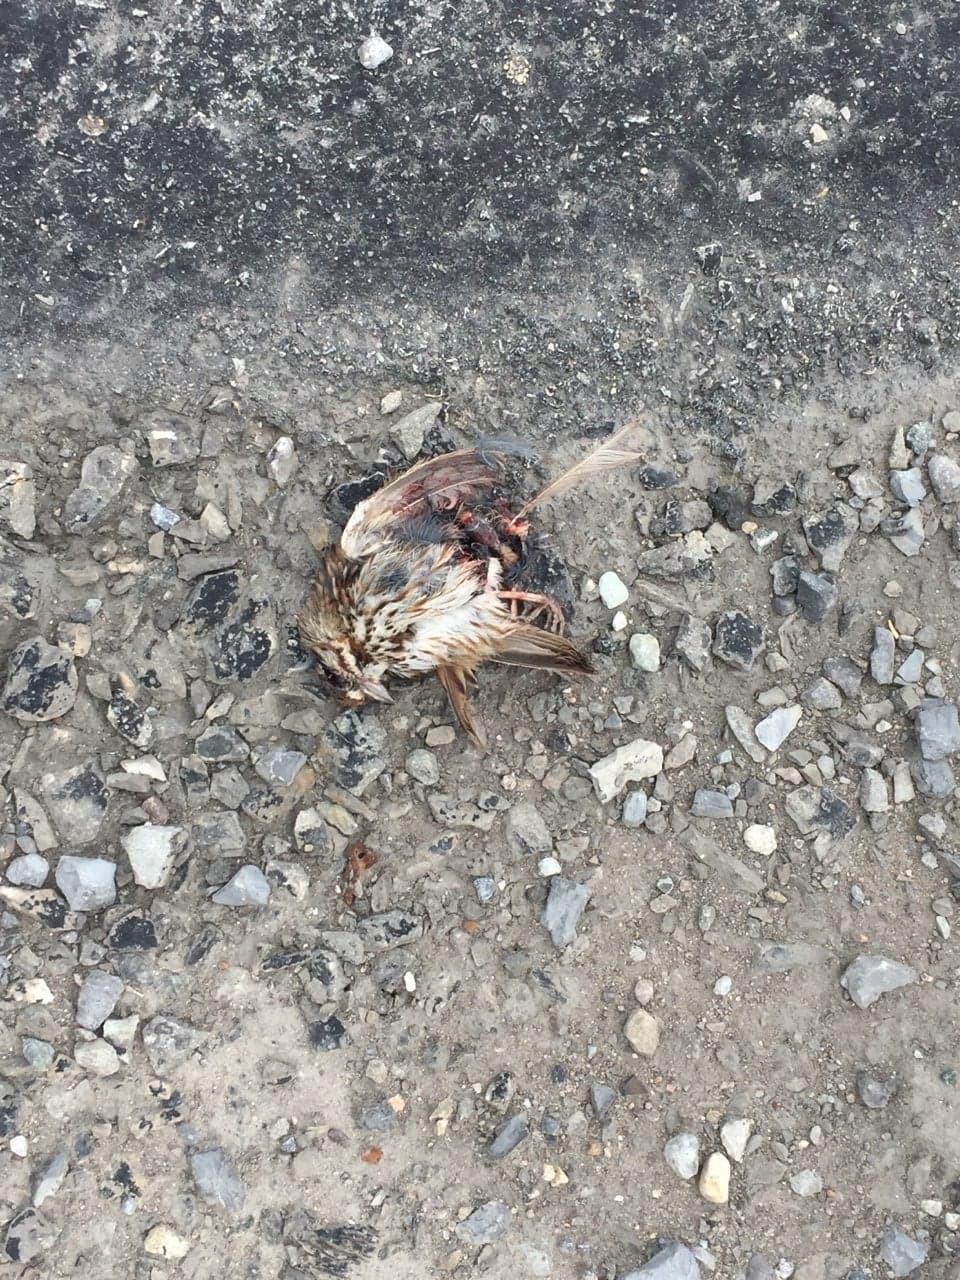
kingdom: Animalia
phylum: Chordata
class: Aves
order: Passeriformes
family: Passerellidae
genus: Melospiza
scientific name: Melospiza melodia
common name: Song sparrow
